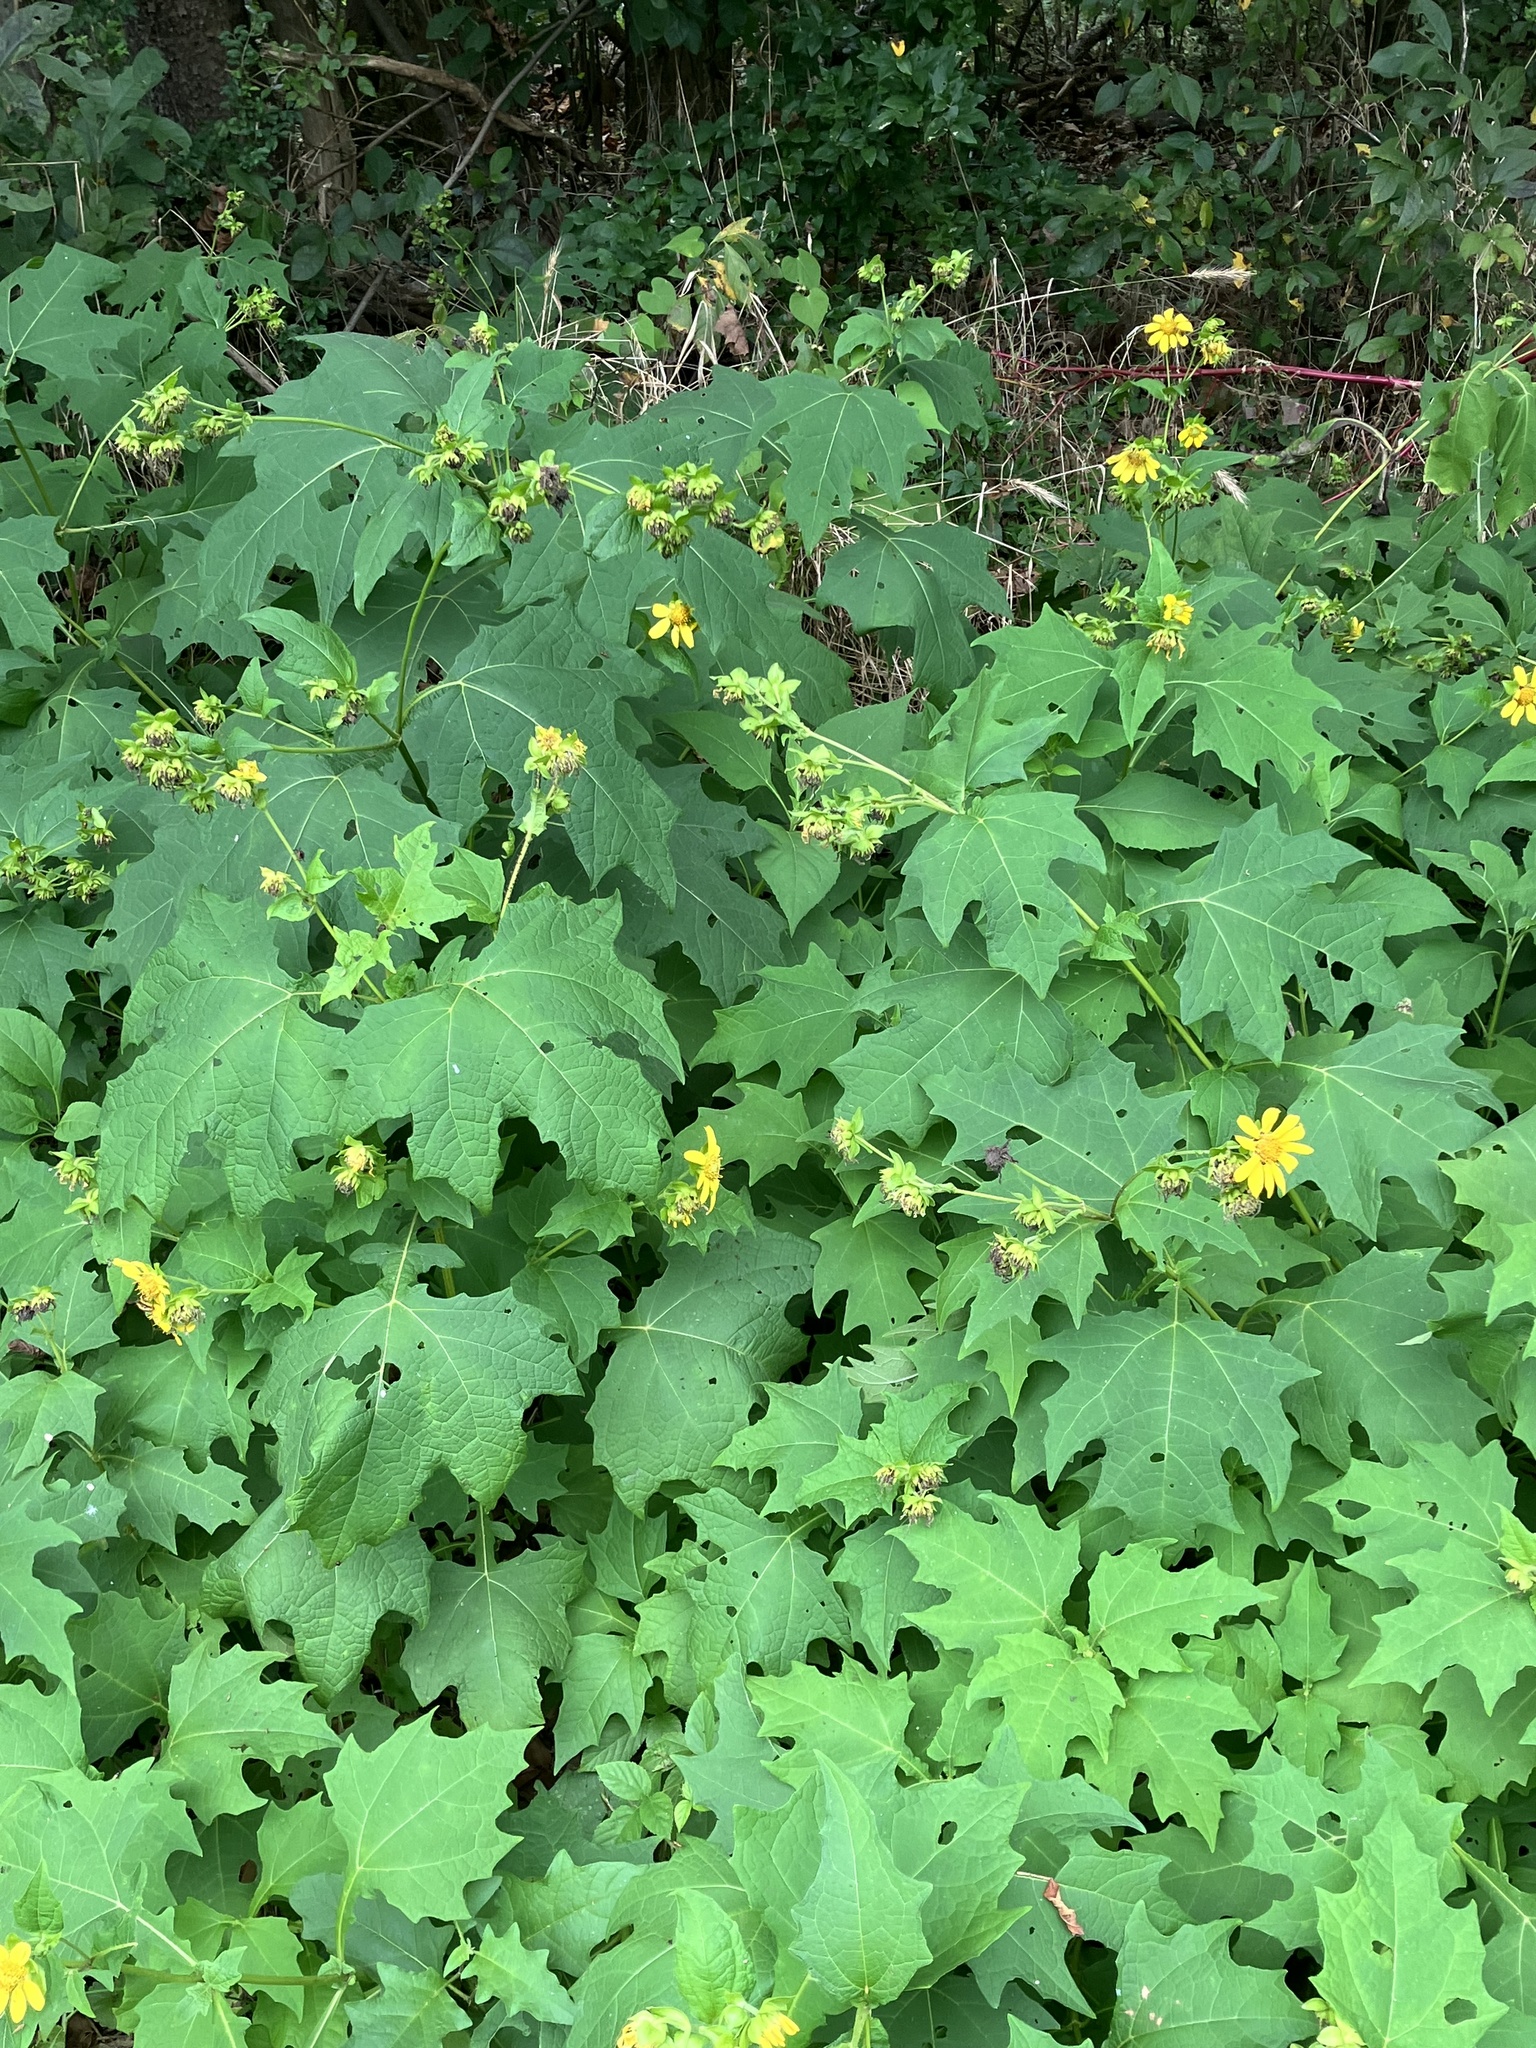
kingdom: Plantae
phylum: Tracheophyta
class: Magnoliopsida
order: Asterales
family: Asteraceae
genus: Smallanthus
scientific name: Smallanthus uvedalia
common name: Bear's-foot
